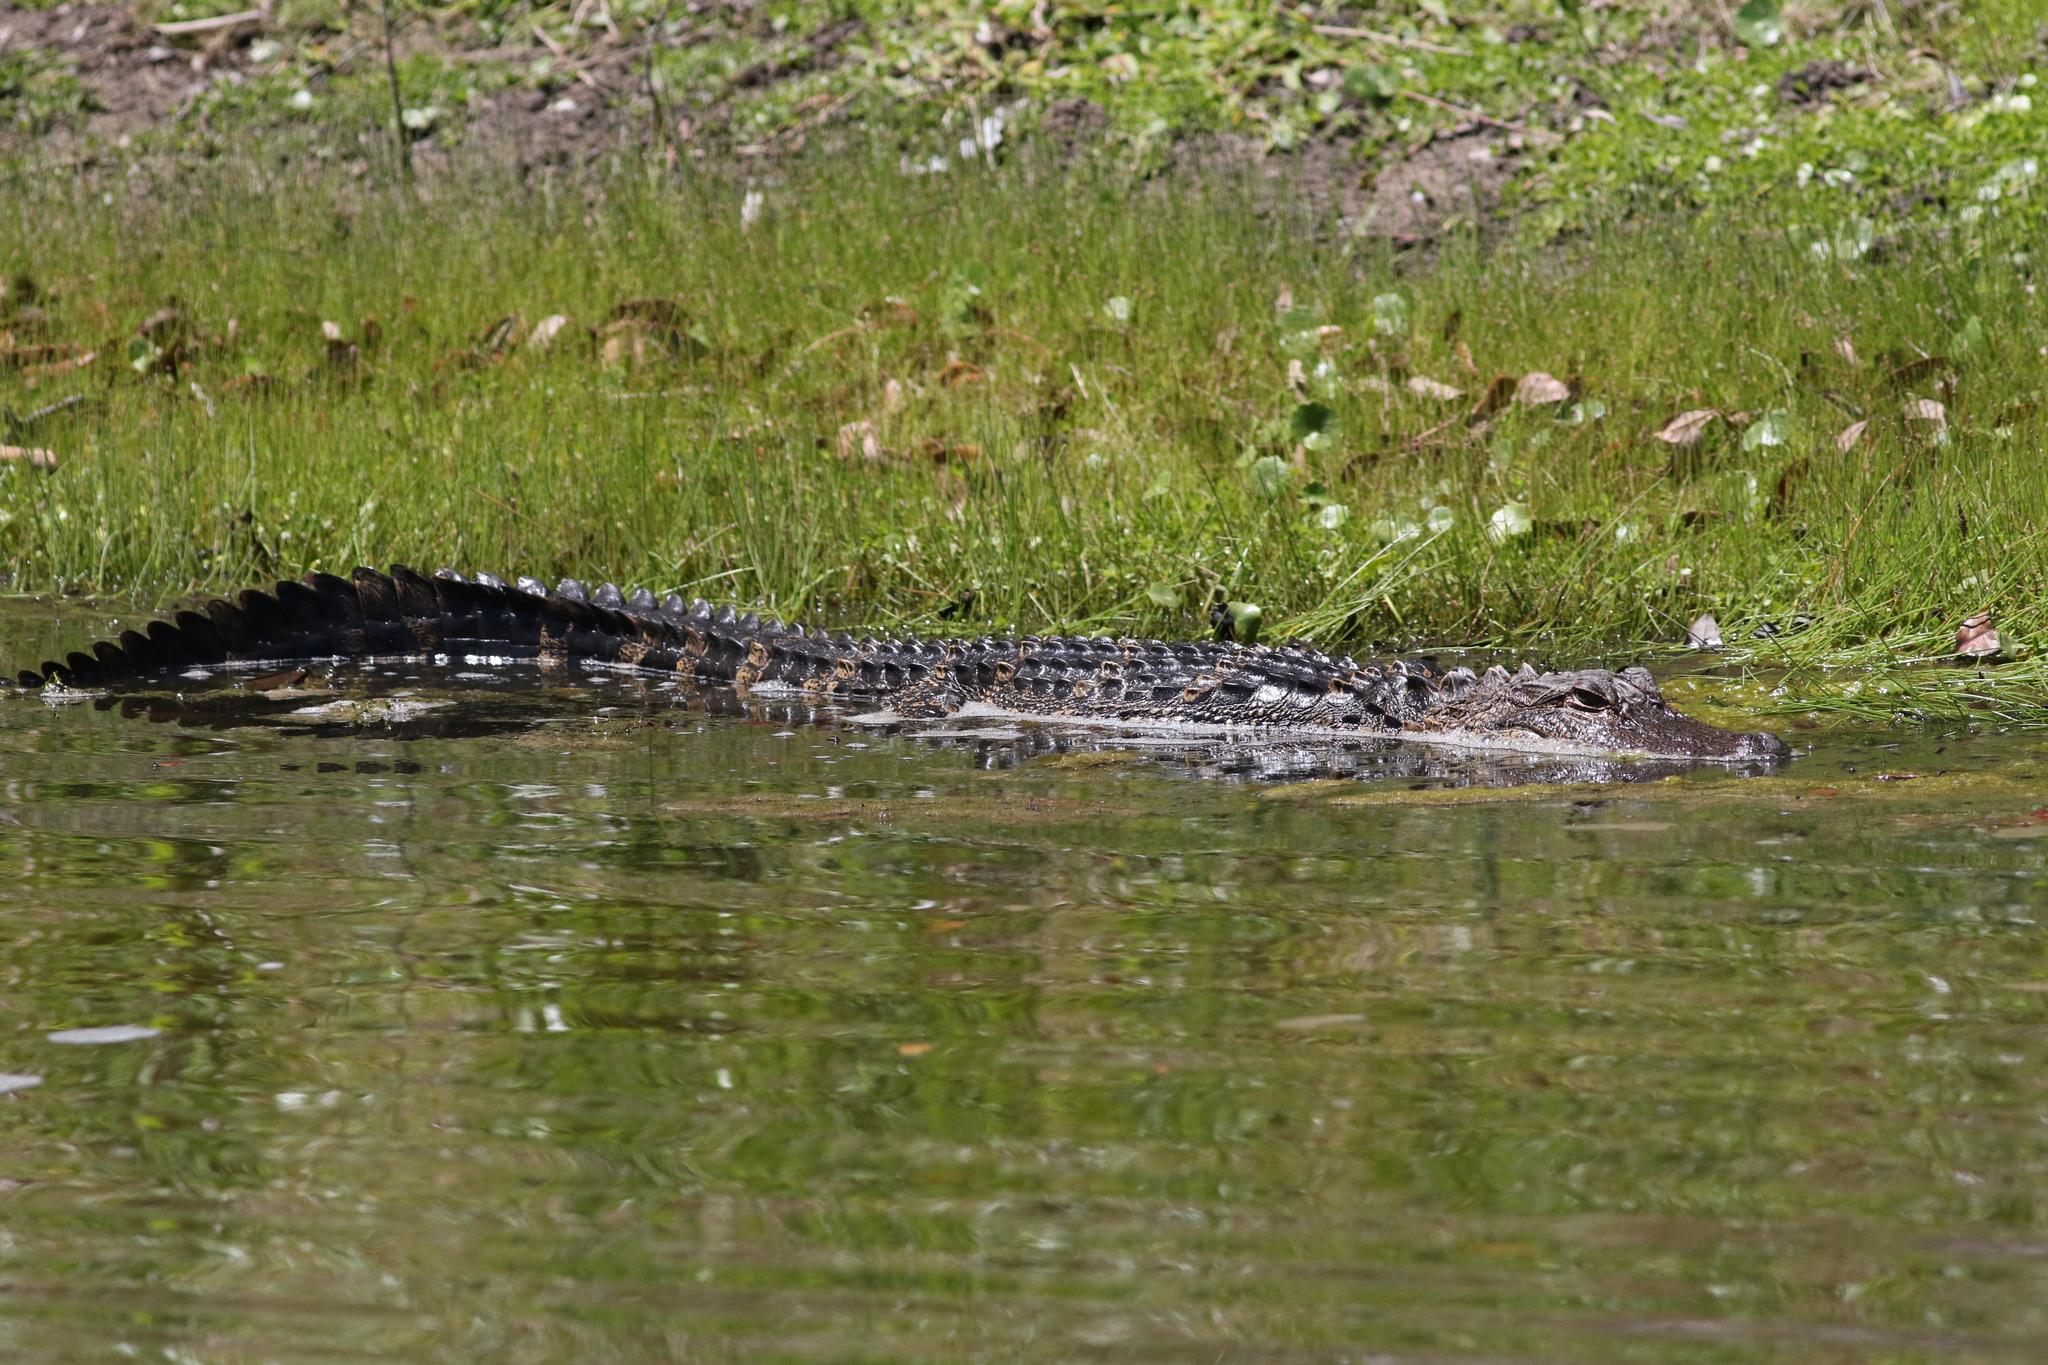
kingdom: Animalia
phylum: Chordata
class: Crocodylia
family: Alligatoridae
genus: Alligator
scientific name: Alligator mississippiensis
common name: American alligator
